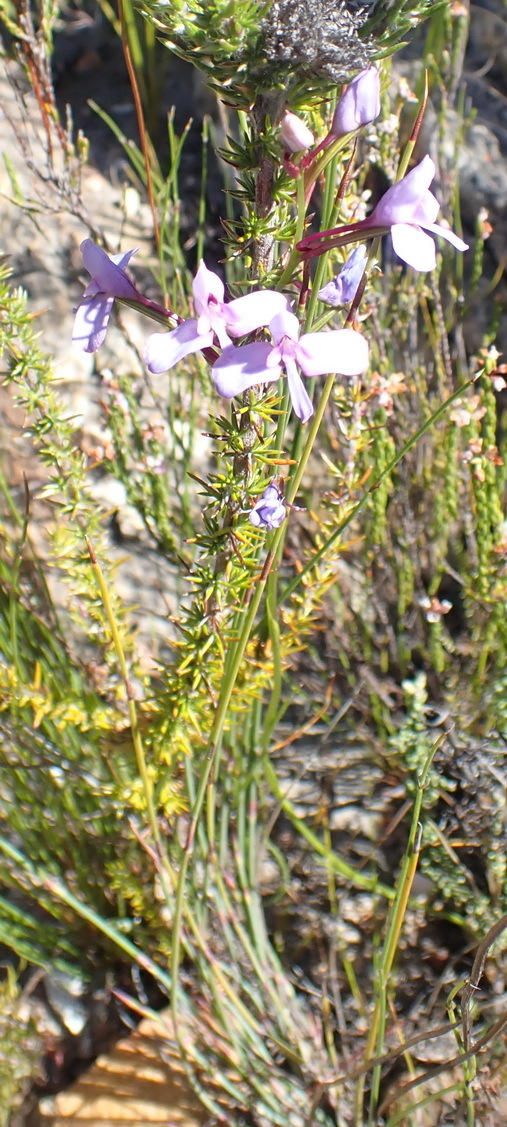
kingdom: Plantae
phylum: Tracheophyta
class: Liliopsida
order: Asparagales
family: Orchidaceae
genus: Disa
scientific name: Disa arida
